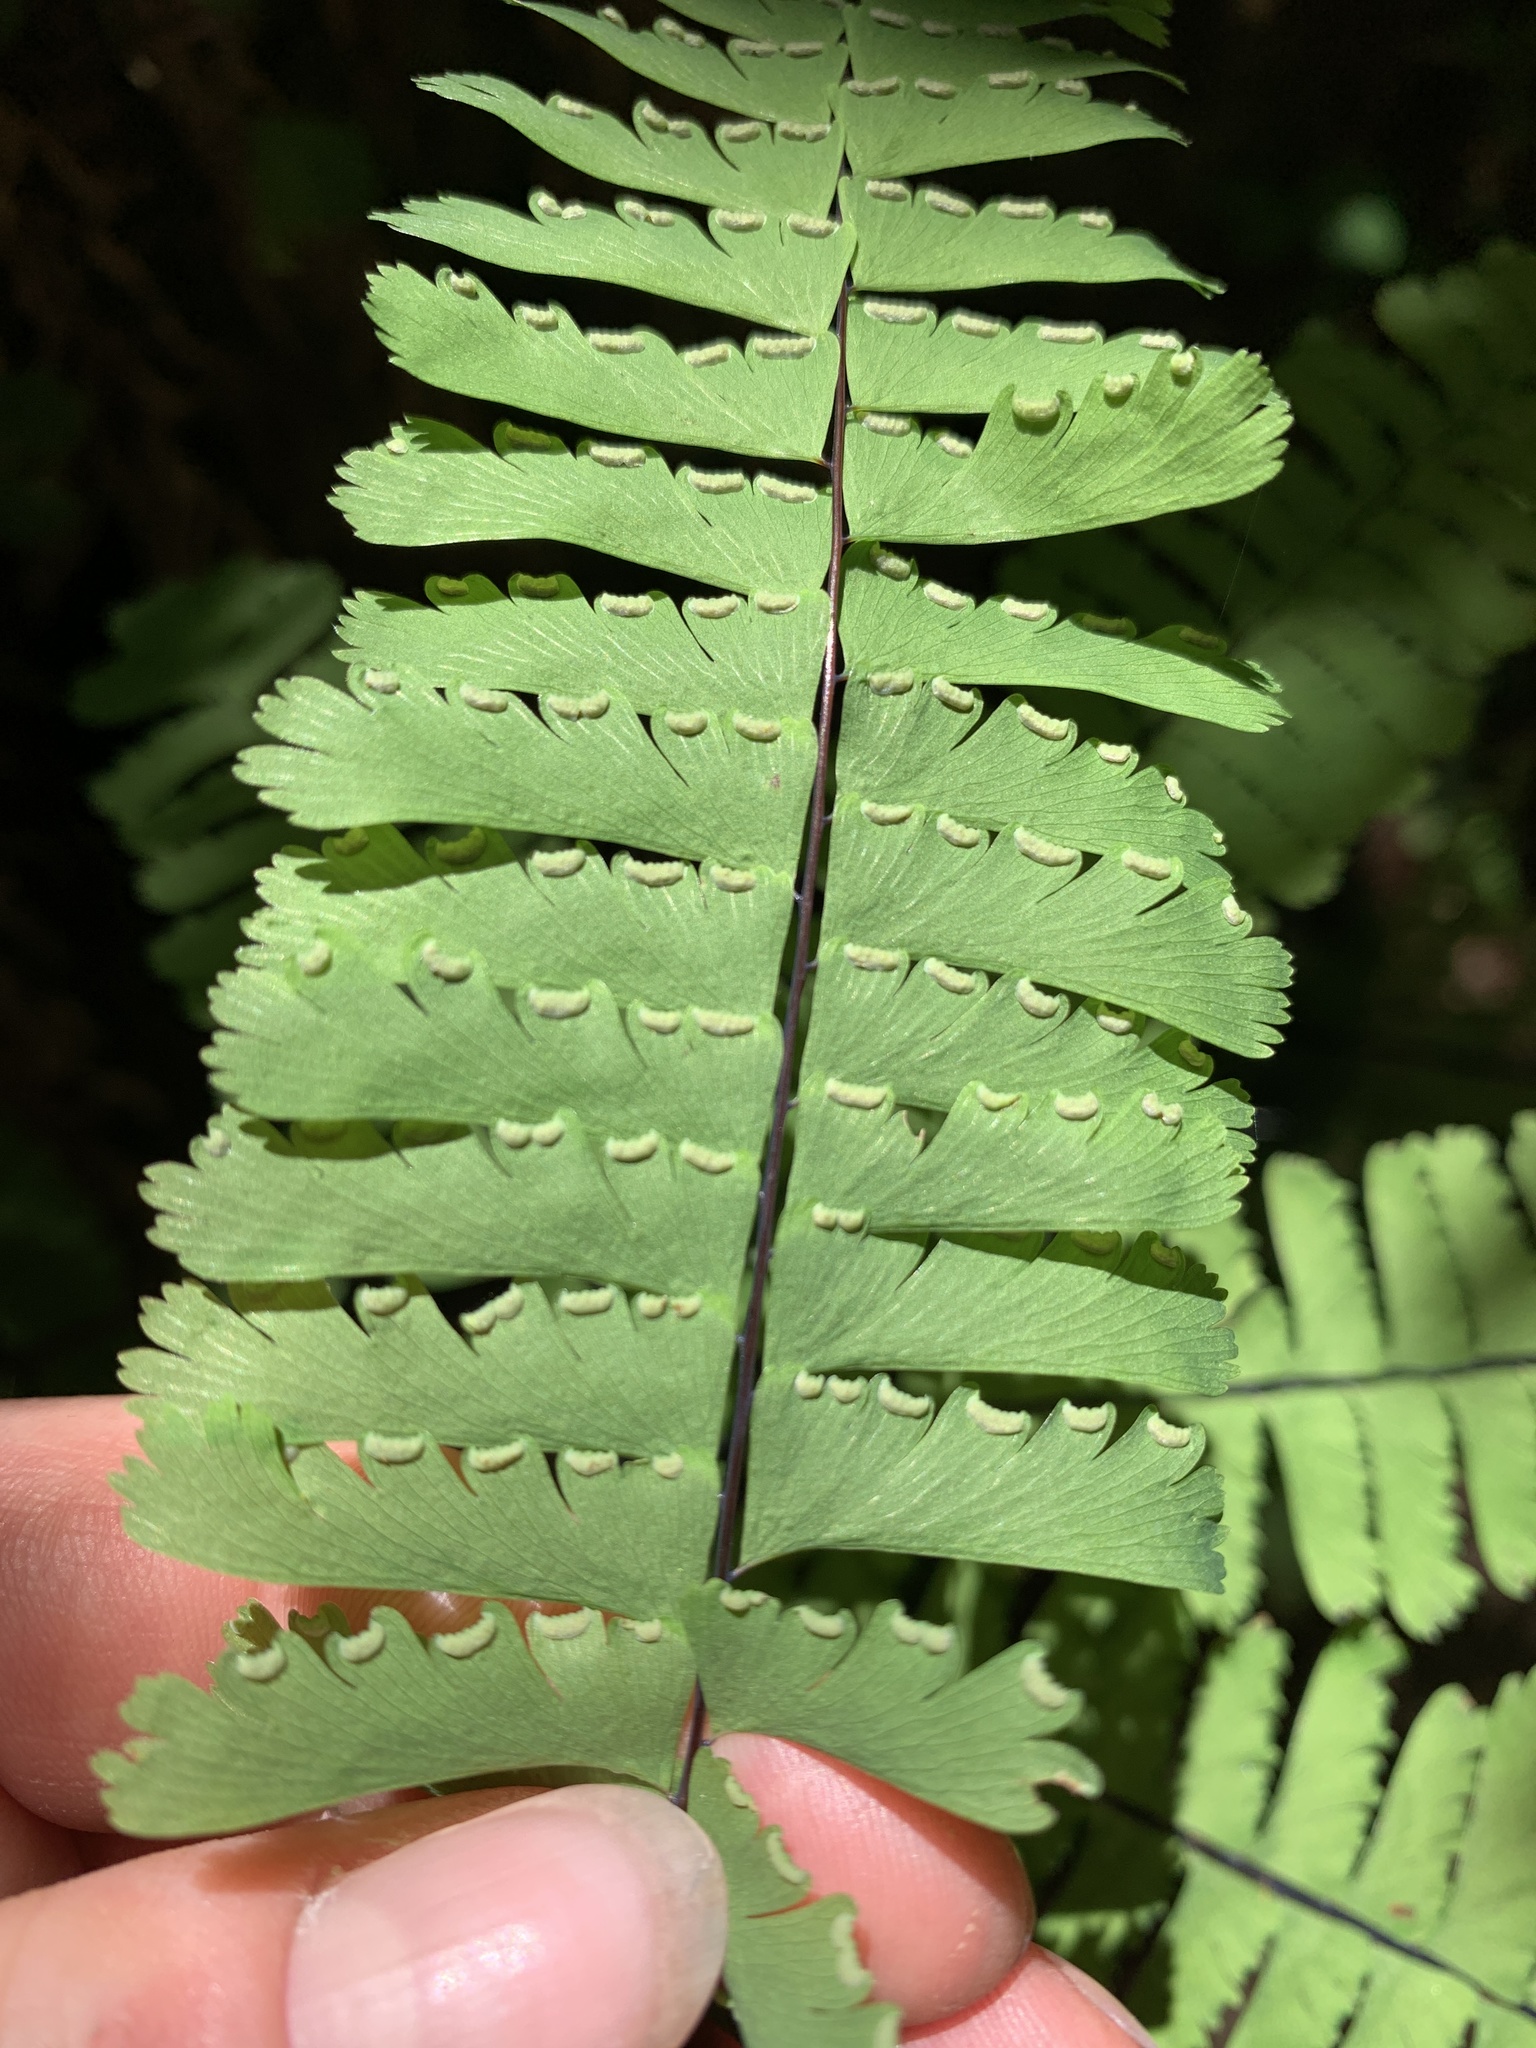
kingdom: Plantae
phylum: Tracheophyta
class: Polypodiopsida
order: Polypodiales
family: Pteridaceae
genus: Adiantum
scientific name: Adiantum aleuticum
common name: Aleutian maidenhair fern
